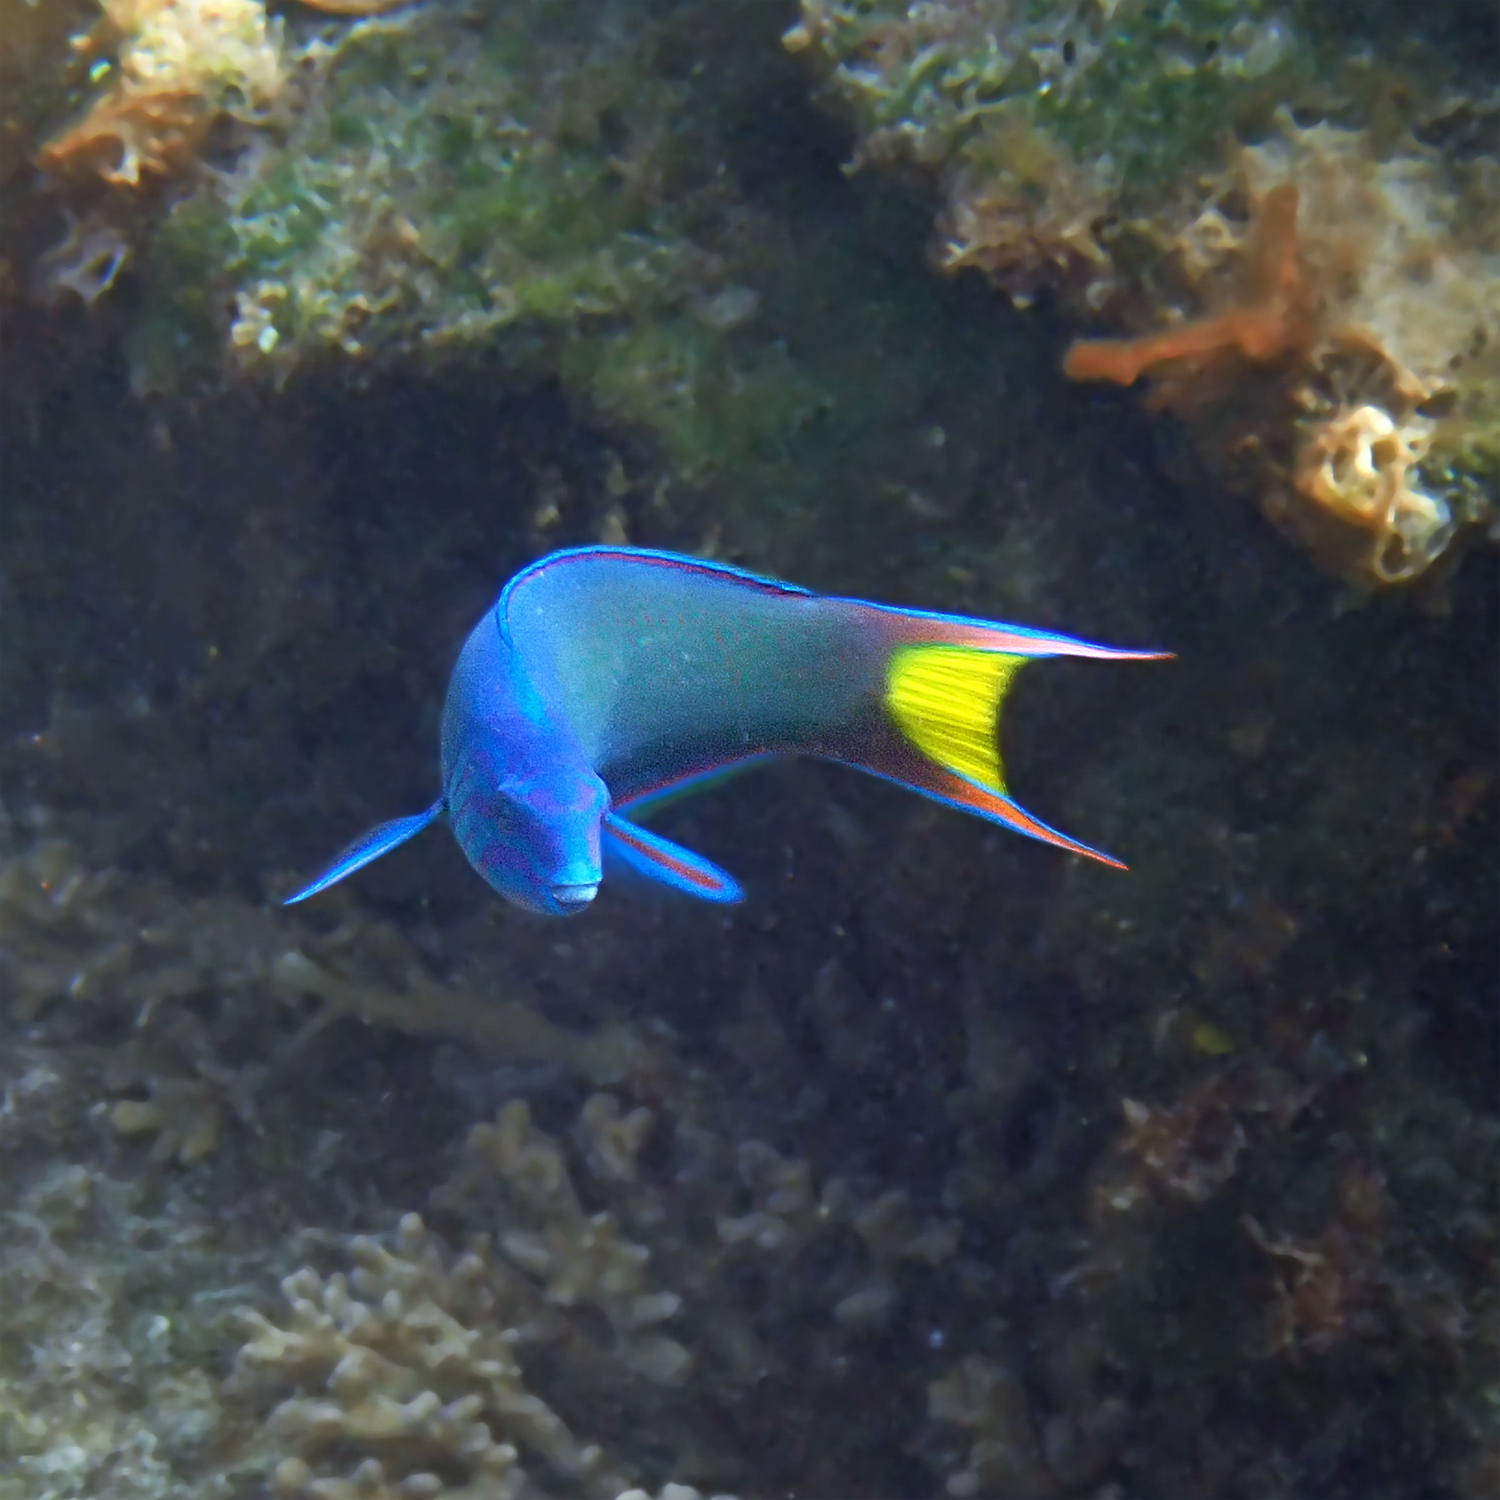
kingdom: Animalia
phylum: Chordata
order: Perciformes
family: Labridae
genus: Thalassoma
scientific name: Thalassoma lunare
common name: Blue wrasse
